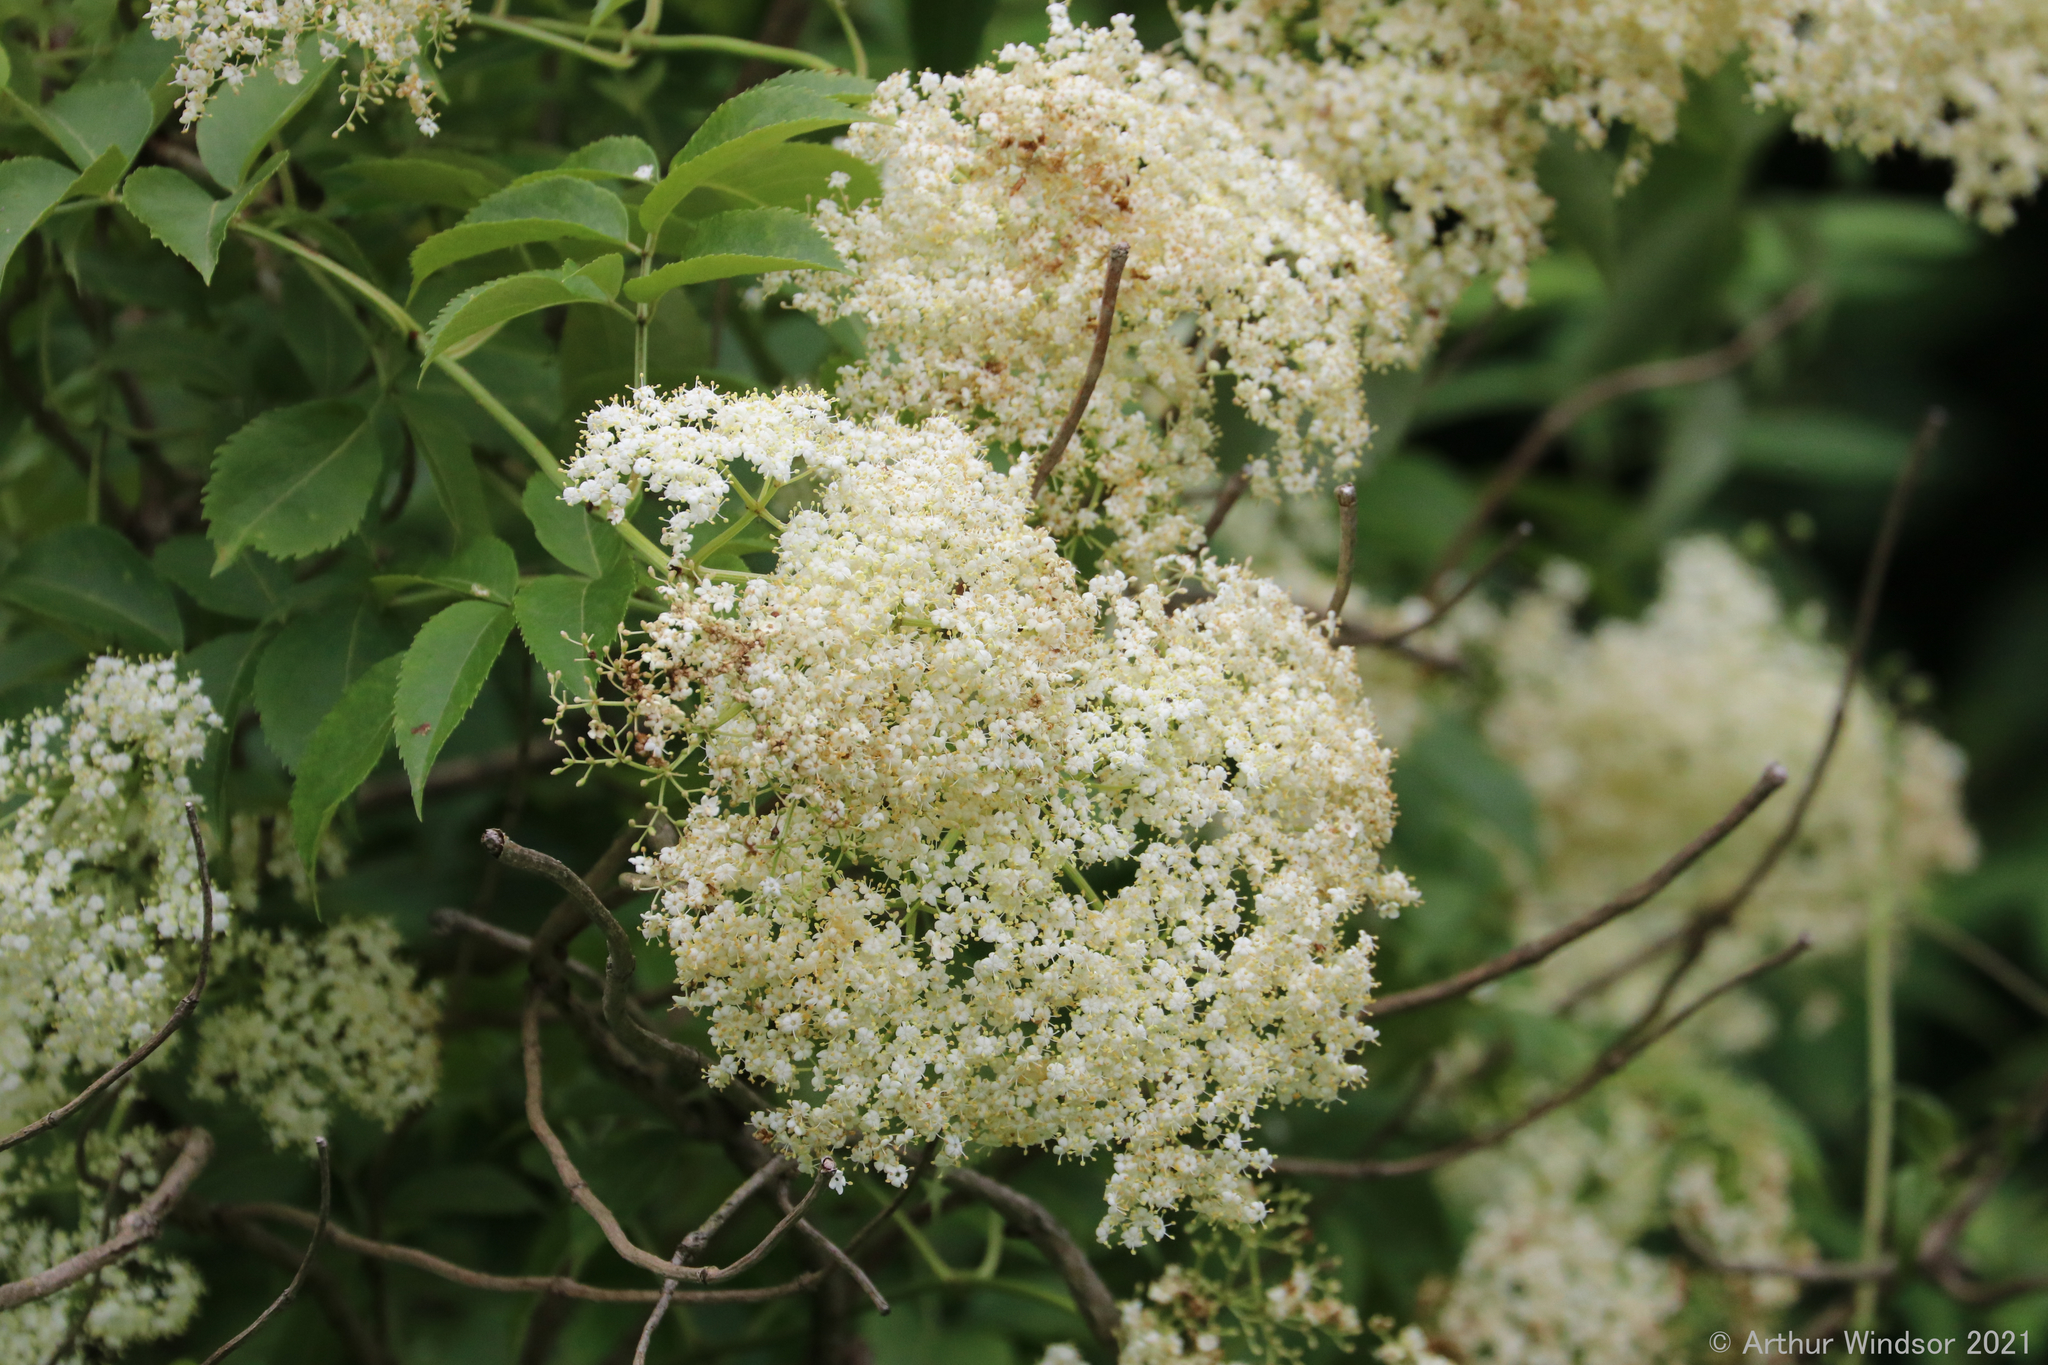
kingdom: Plantae
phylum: Tracheophyta
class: Magnoliopsida
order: Dipsacales
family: Viburnaceae
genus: Sambucus
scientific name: Sambucus canadensis
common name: American elder
